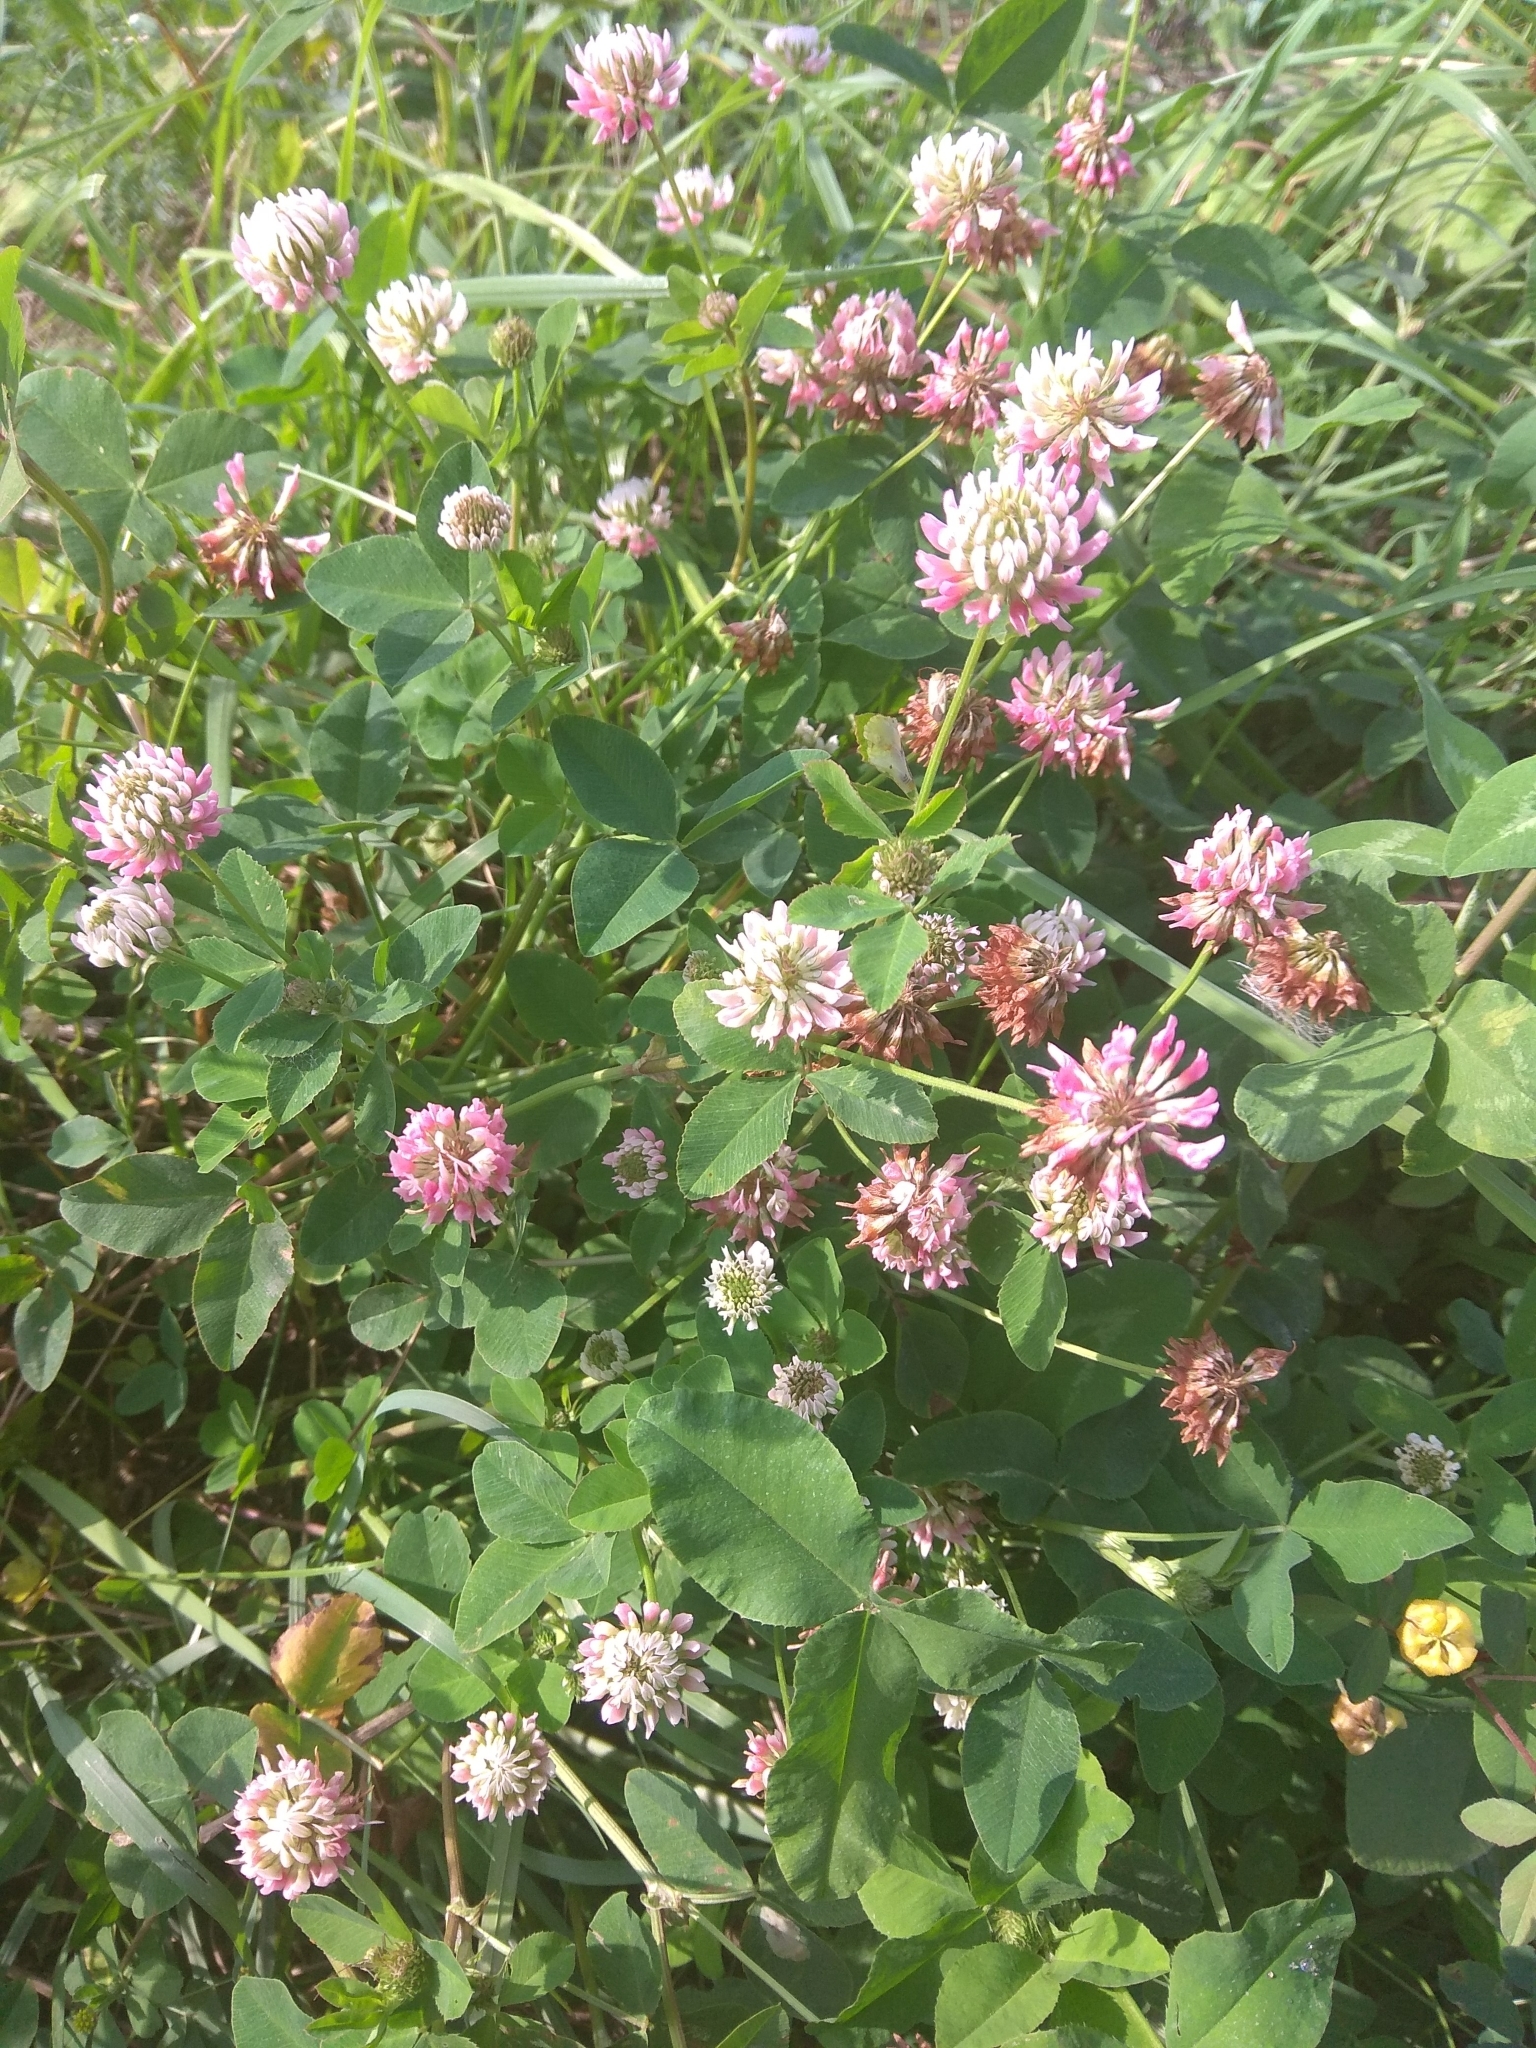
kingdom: Plantae
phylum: Tracheophyta
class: Magnoliopsida
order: Fabales
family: Fabaceae
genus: Trifolium
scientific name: Trifolium hybridum
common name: Alsike clover
